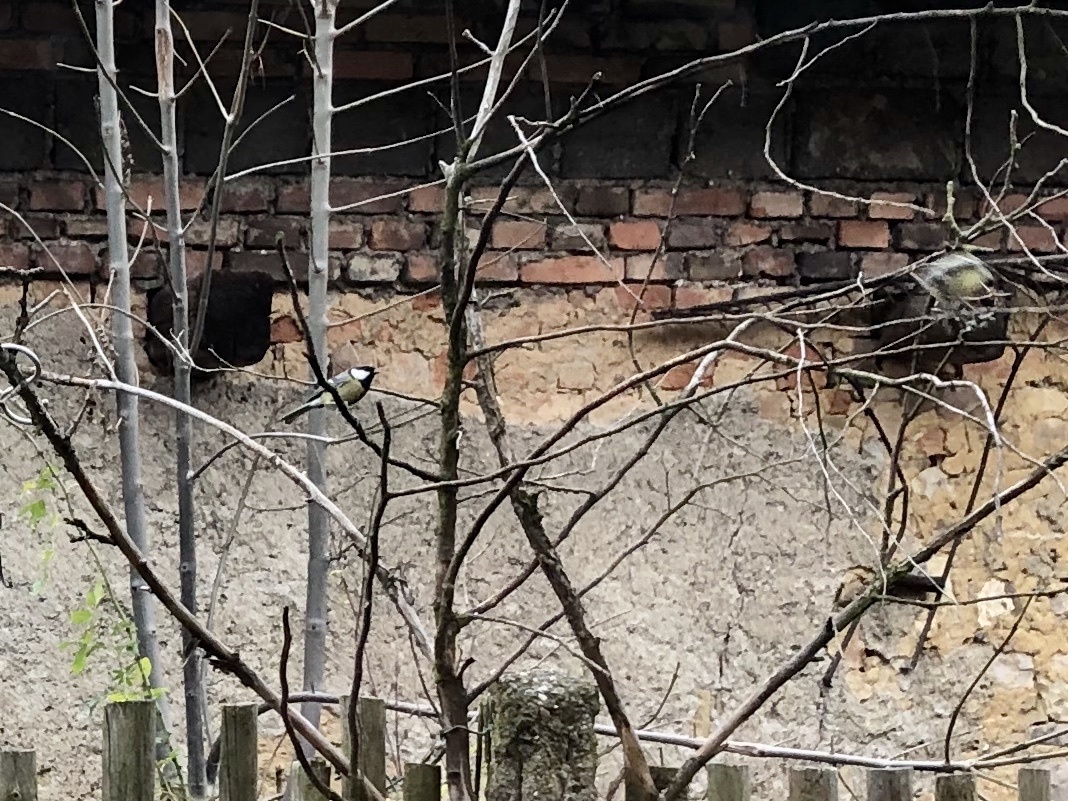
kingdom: Animalia
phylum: Chordata
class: Aves
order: Passeriformes
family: Paridae
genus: Parus
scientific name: Parus major
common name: Great tit
